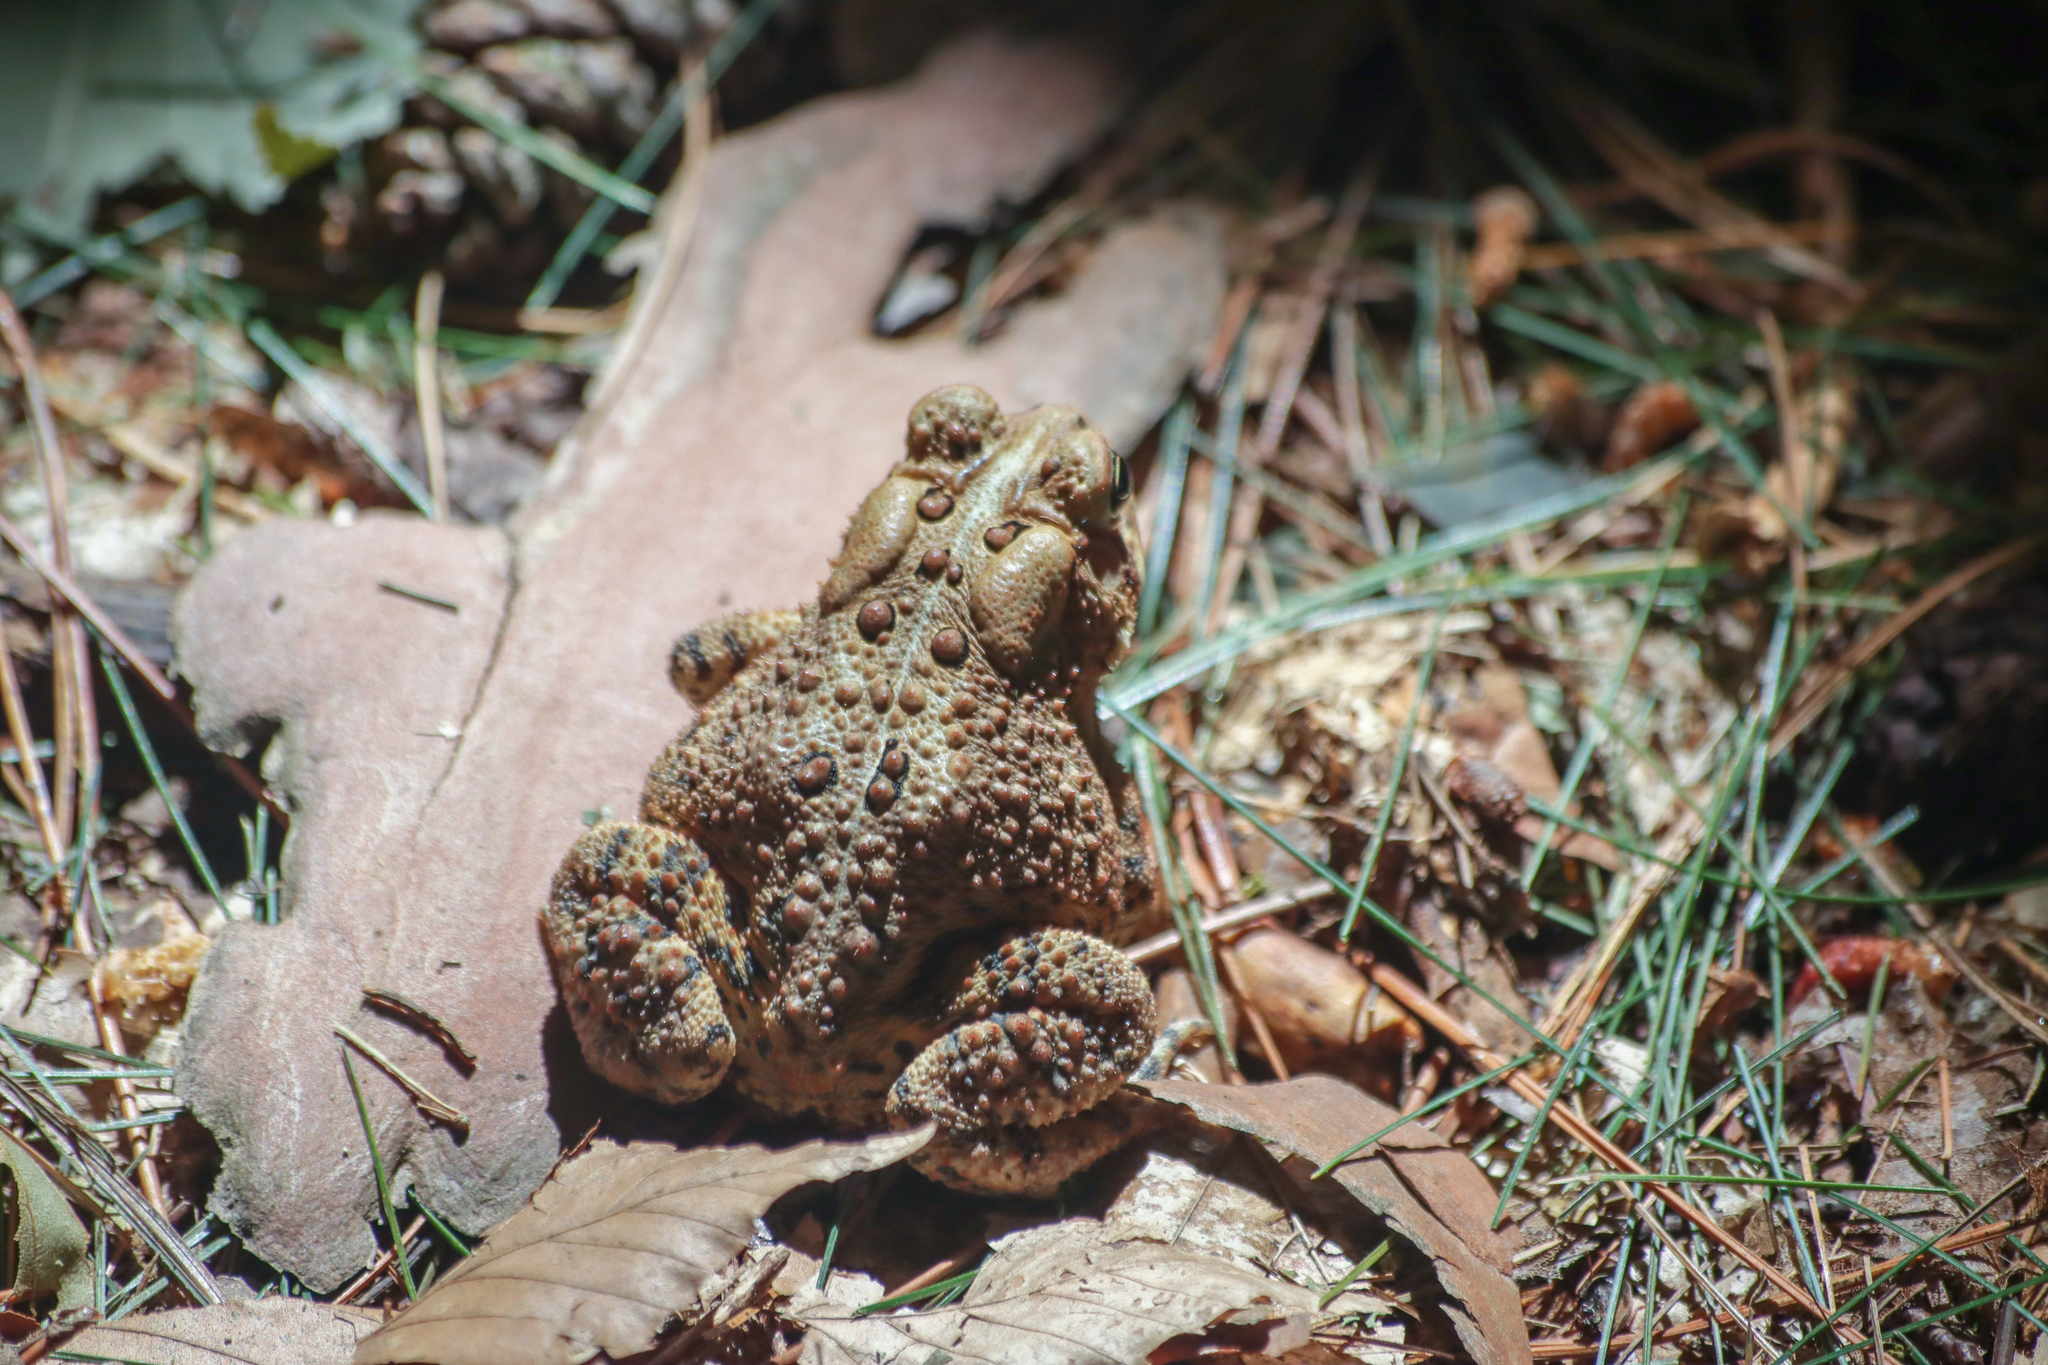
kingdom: Animalia
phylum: Chordata
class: Amphibia
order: Anura
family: Bufonidae
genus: Anaxyrus
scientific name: Anaxyrus americanus
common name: American toad
